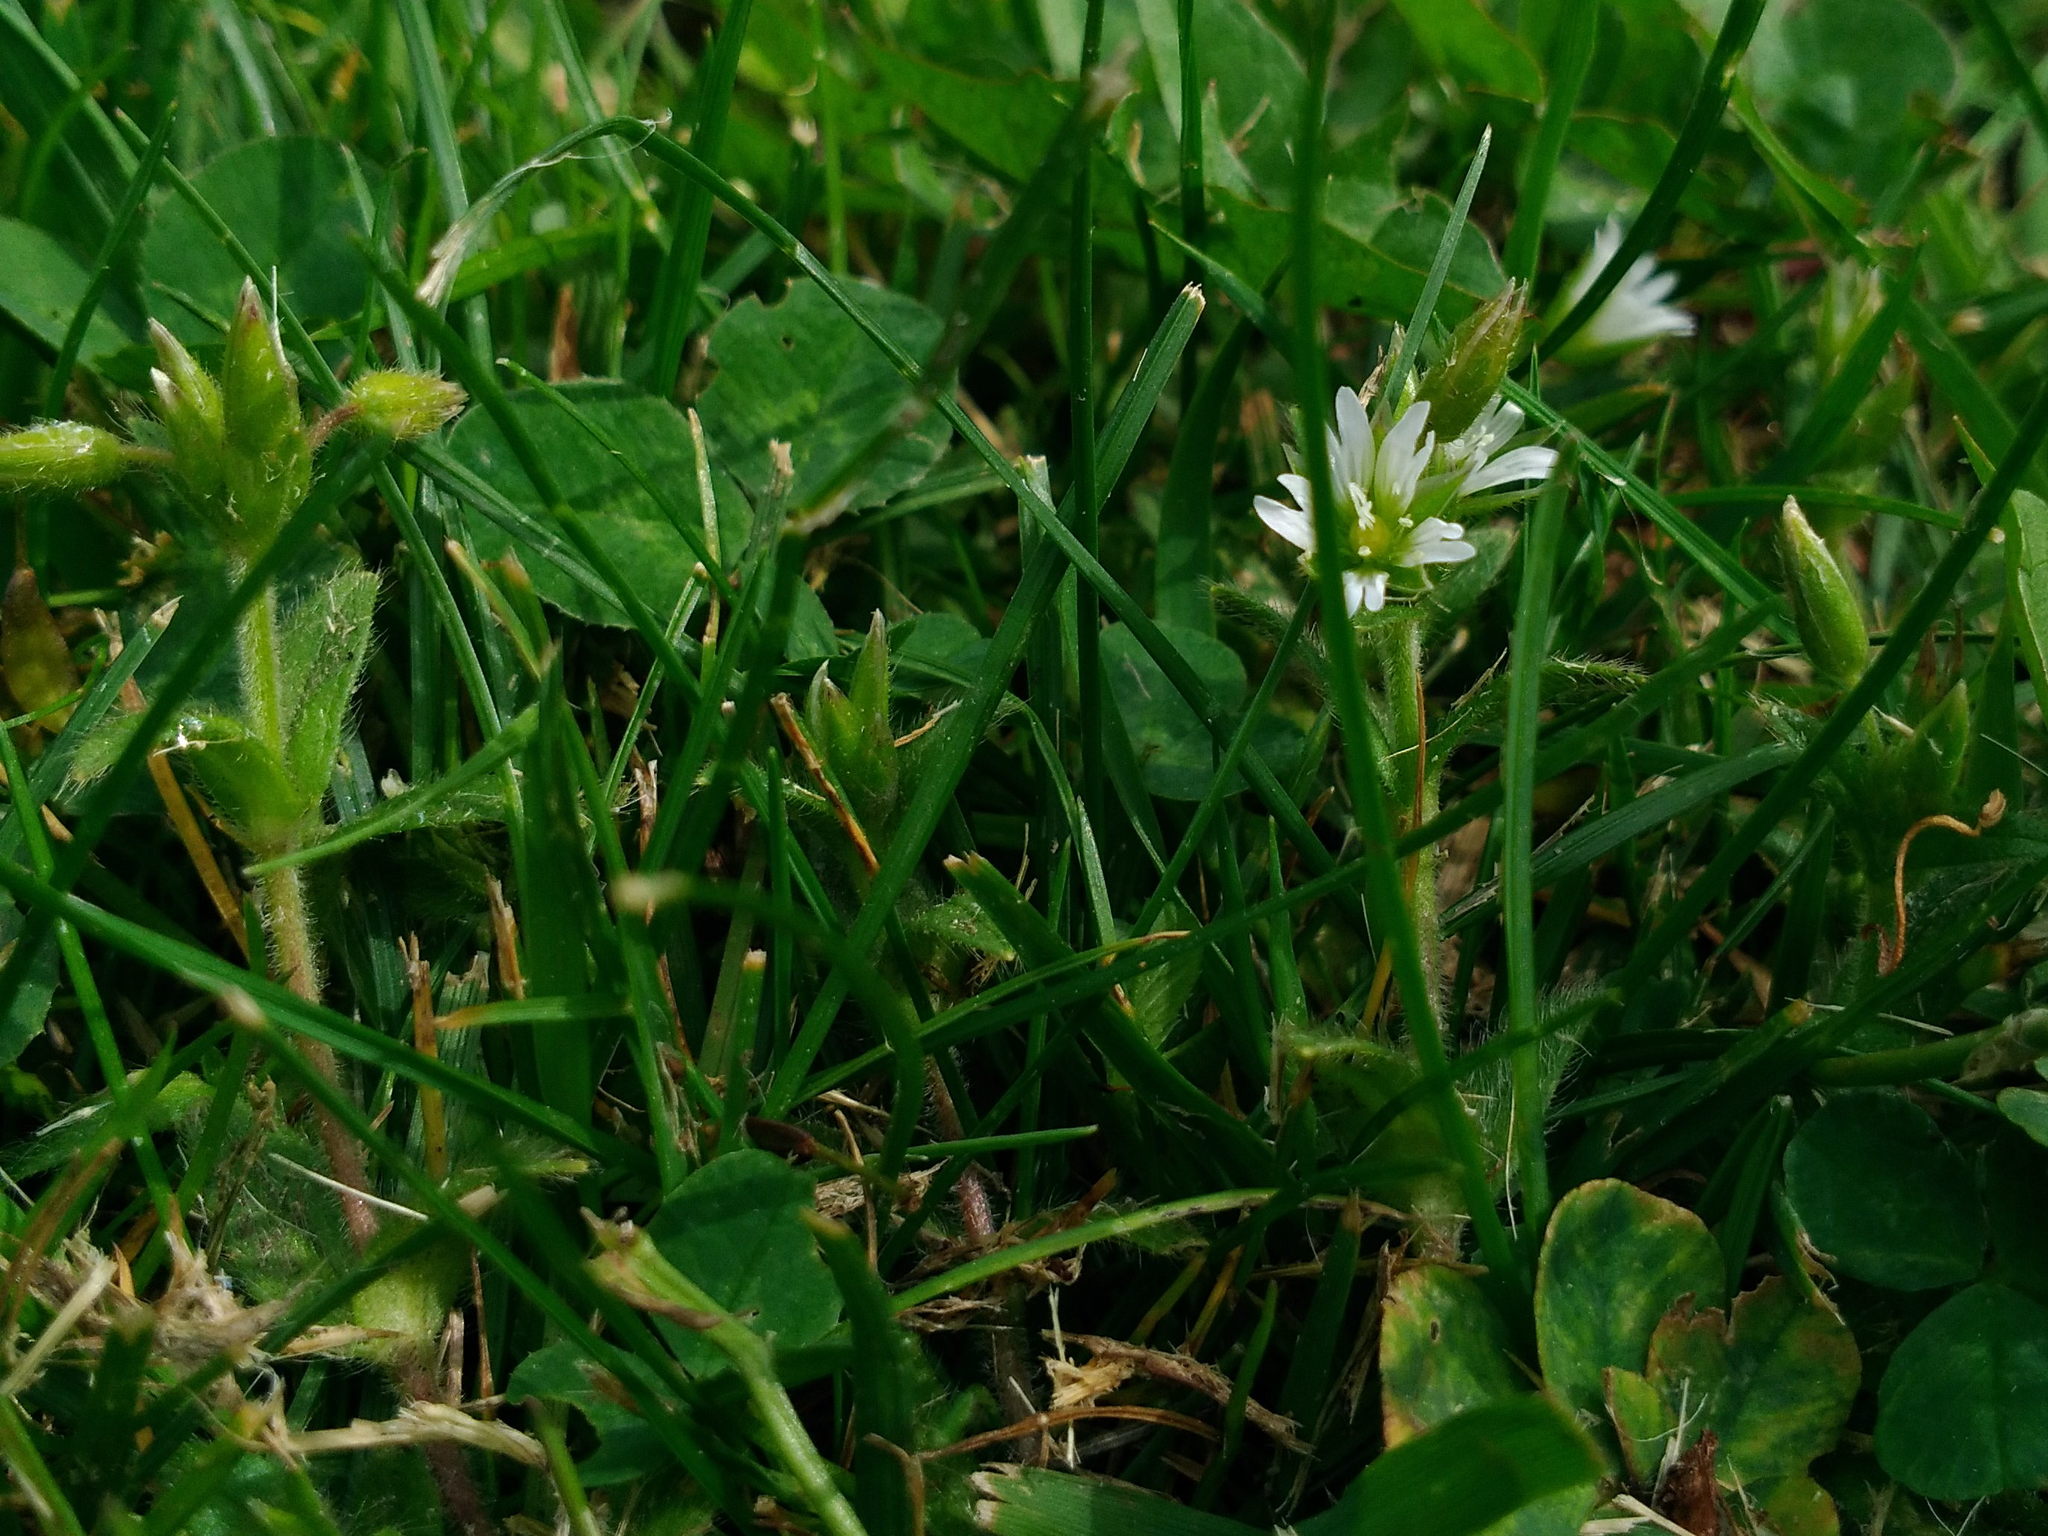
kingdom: Plantae
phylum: Tracheophyta
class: Magnoliopsida
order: Caryophyllales
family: Caryophyllaceae
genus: Cerastium
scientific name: Cerastium fontanum
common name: Common mouse-ear
